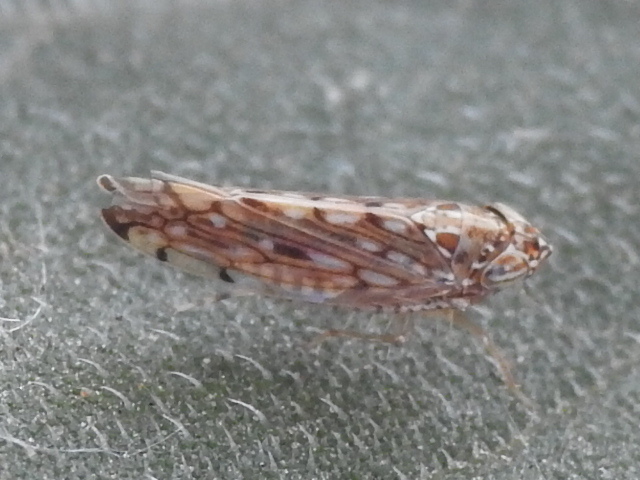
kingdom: Animalia
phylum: Arthropoda
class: Insecta
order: Hemiptera
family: Cicadellidae
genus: Osbornellus
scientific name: Osbornellus clarus
